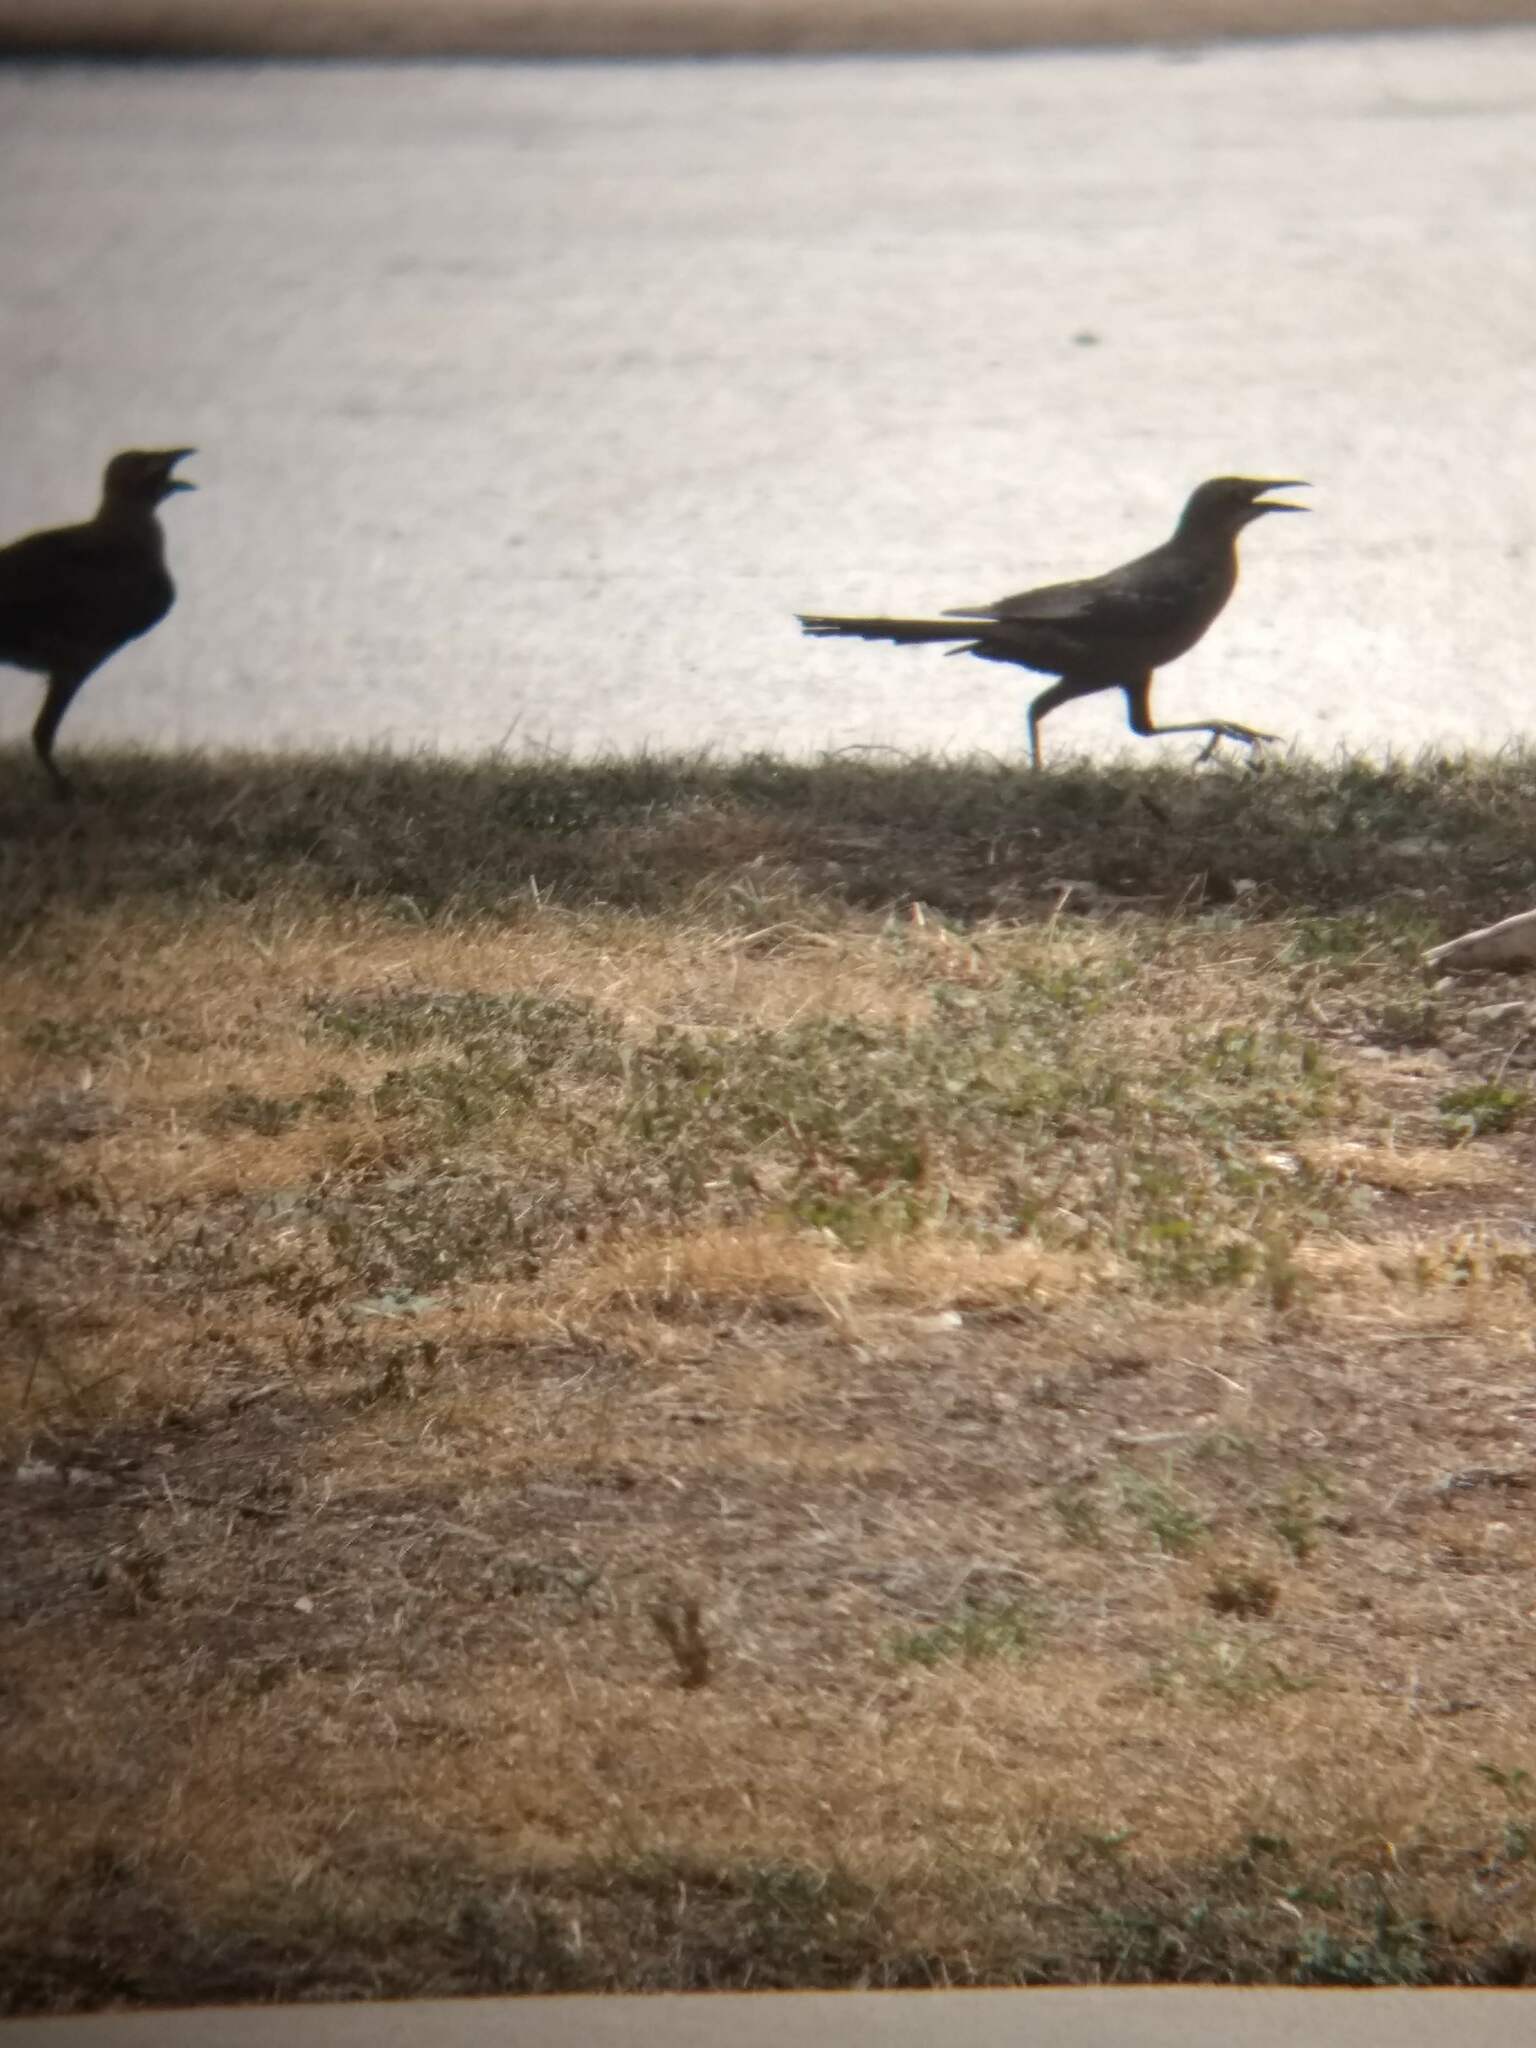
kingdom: Animalia
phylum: Chordata
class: Aves
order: Passeriformes
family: Icteridae
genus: Quiscalus
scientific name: Quiscalus mexicanus
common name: Great-tailed grackle
